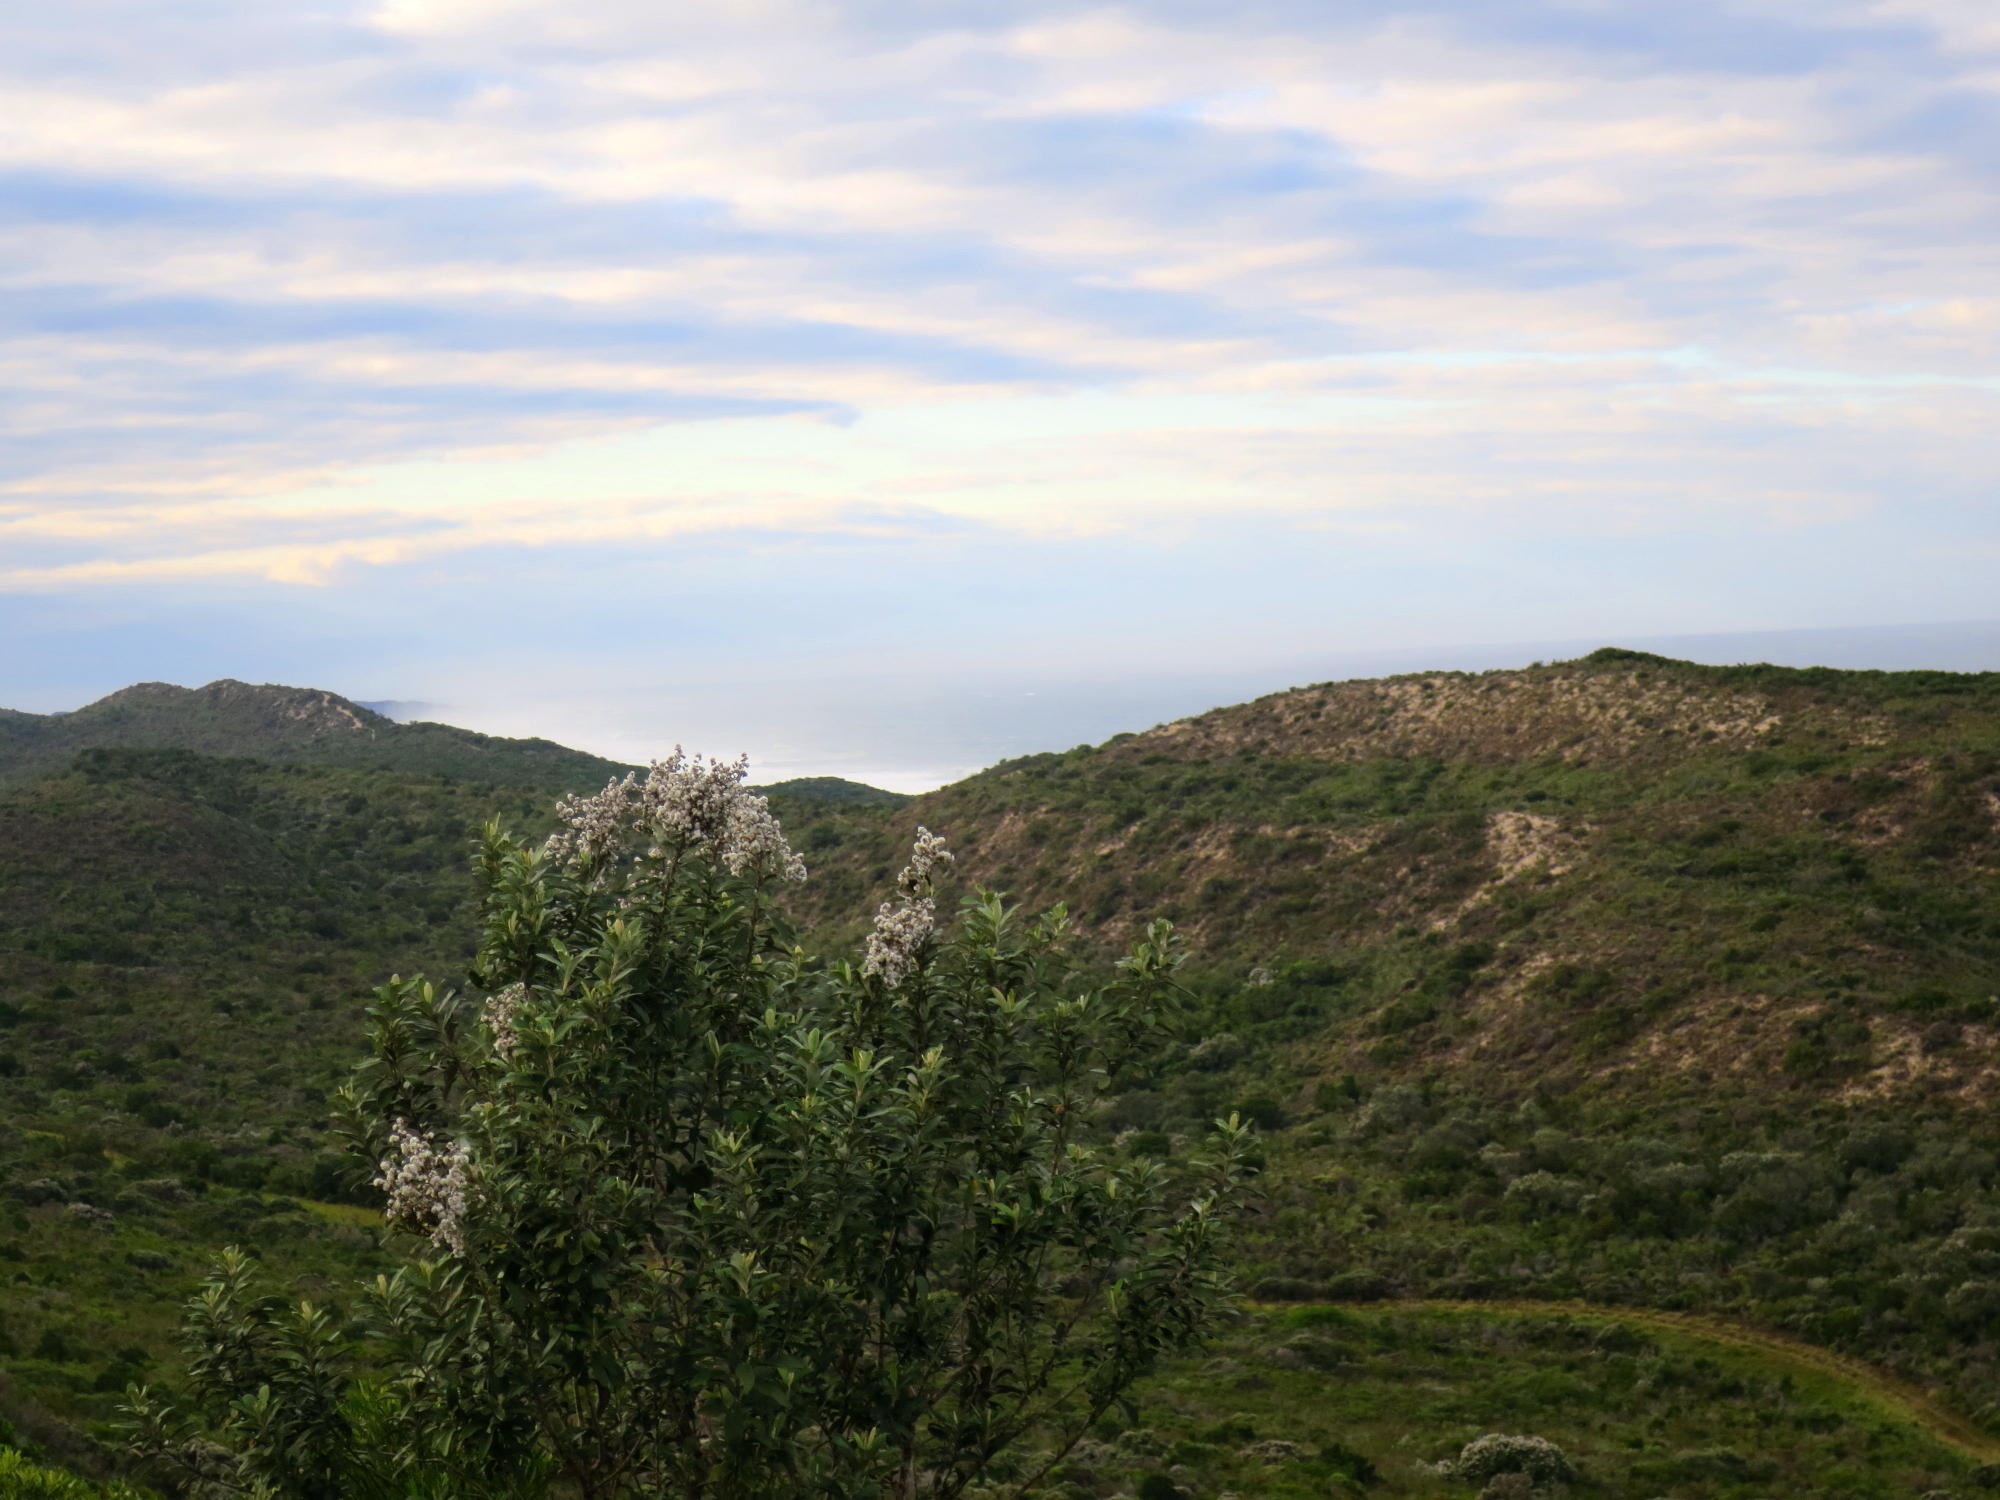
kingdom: Plantae
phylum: Tracheophyta
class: Magnoliopsida
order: Asterales
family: Asteraceae
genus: Tarchonanthus
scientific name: Tarchonanthus littoralis
